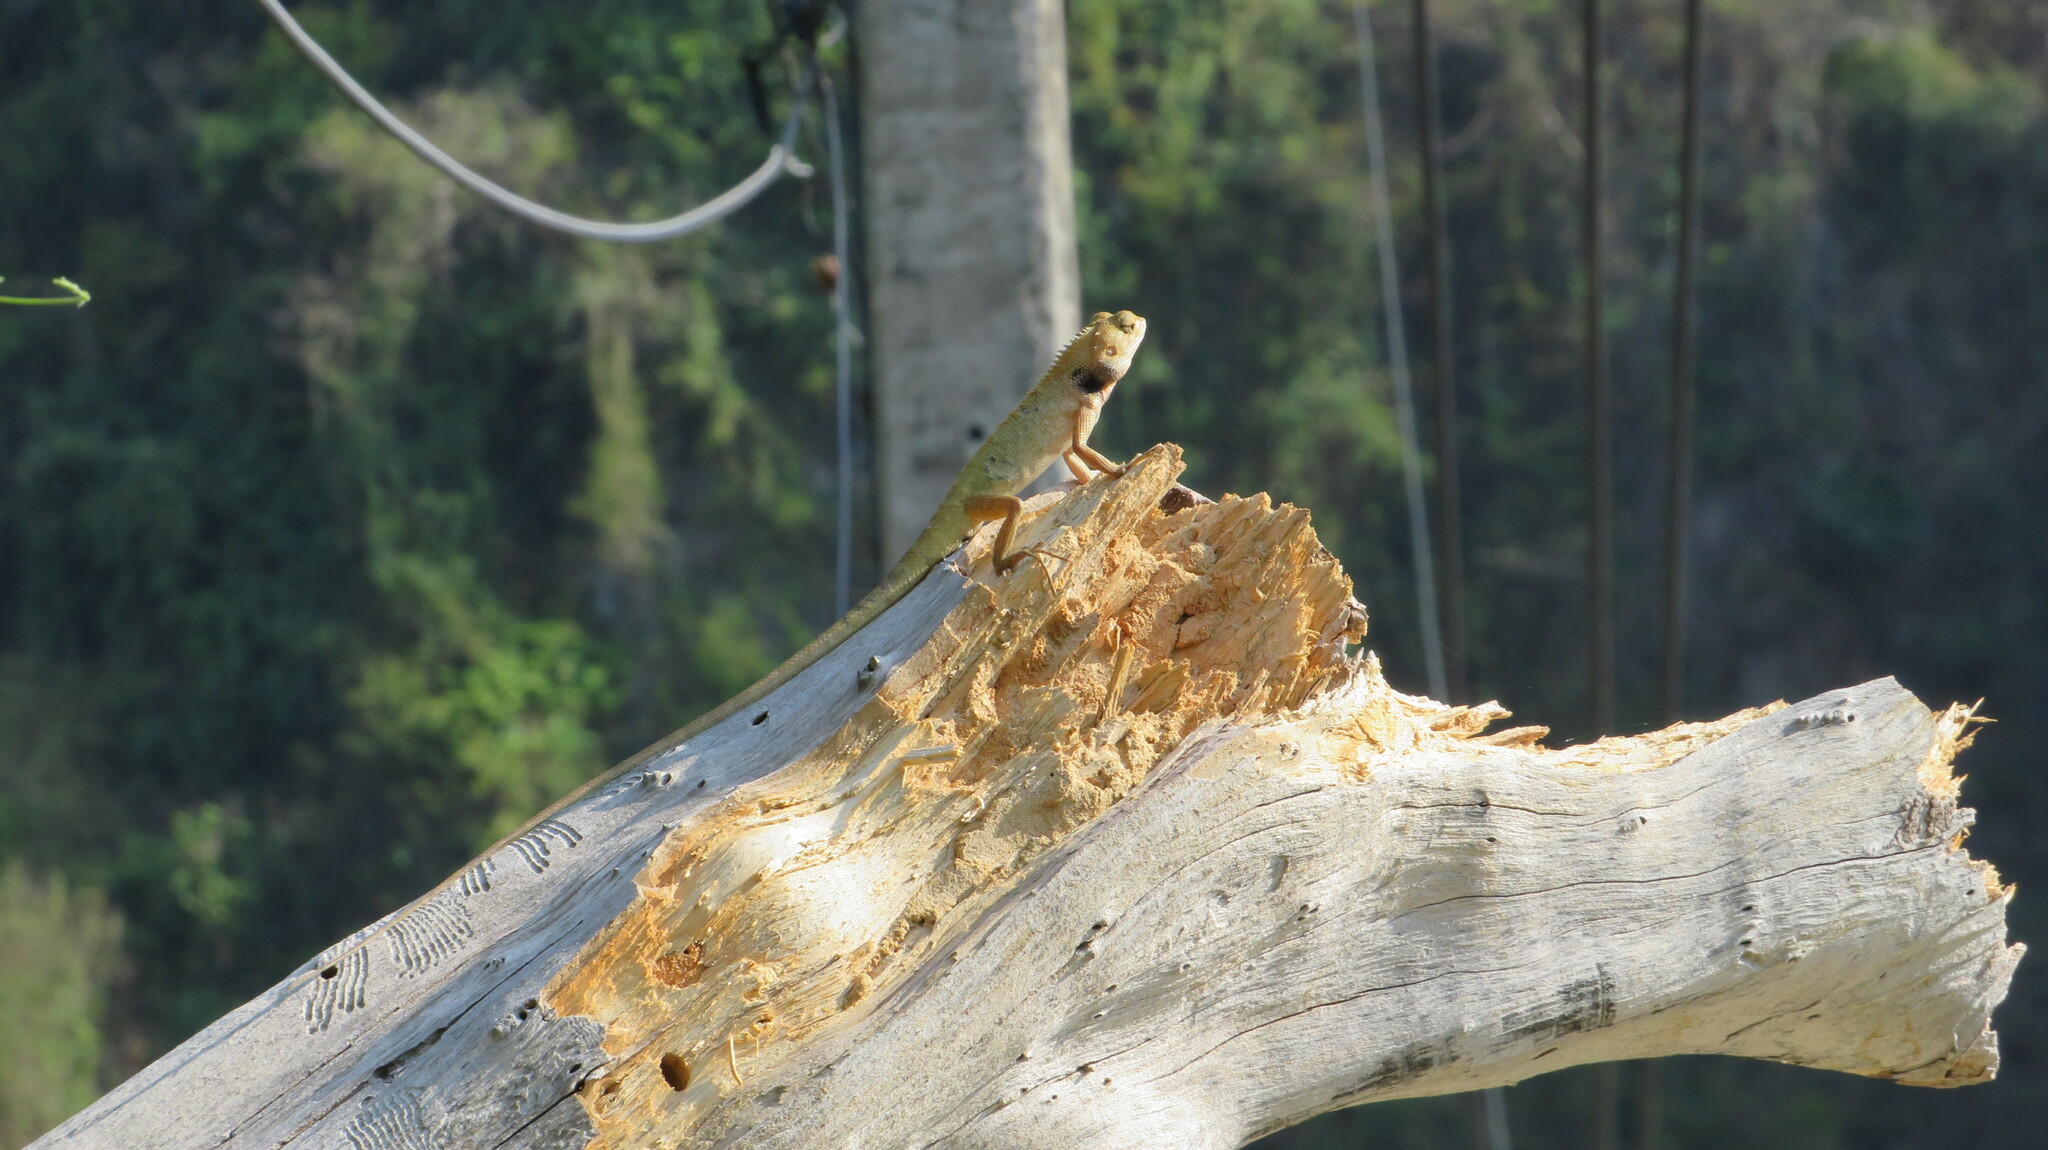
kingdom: Animalia
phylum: Chordata
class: Squamata
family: Agamidae
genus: Calotes
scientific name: Calotes versicolor
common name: Oriental garden lizard
